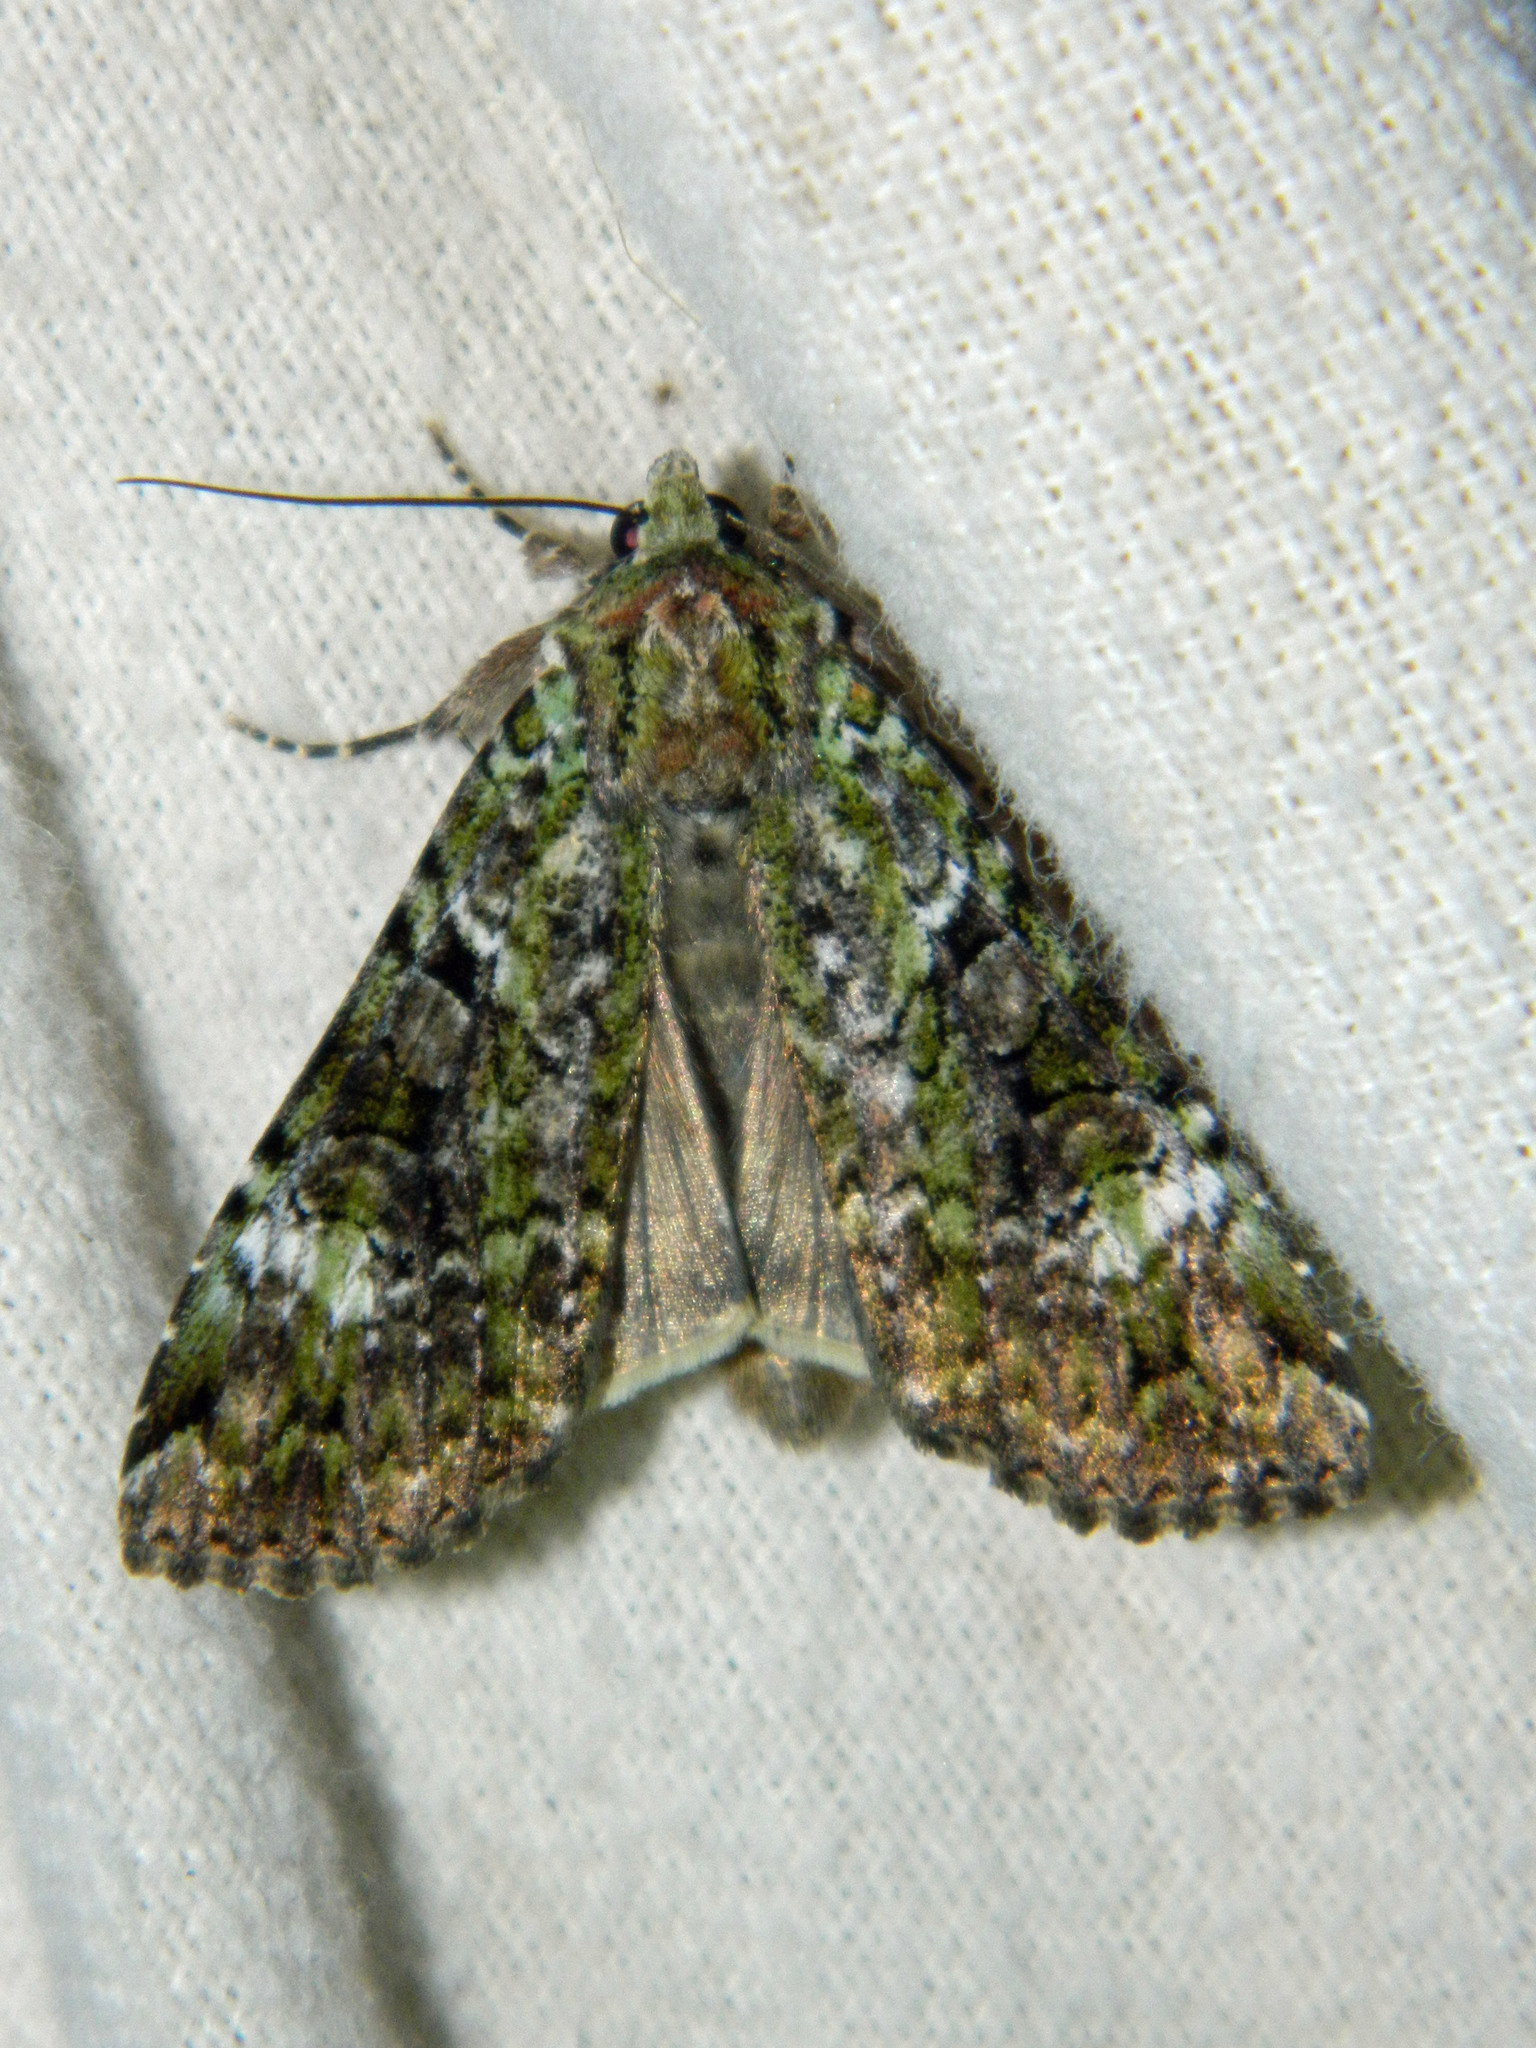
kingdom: Animalia
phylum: Arthropoda
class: Insecta
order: Lepidoptera
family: Noctuidae
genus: Anaplectoides
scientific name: Anaplectoides prasina
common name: Green arches
